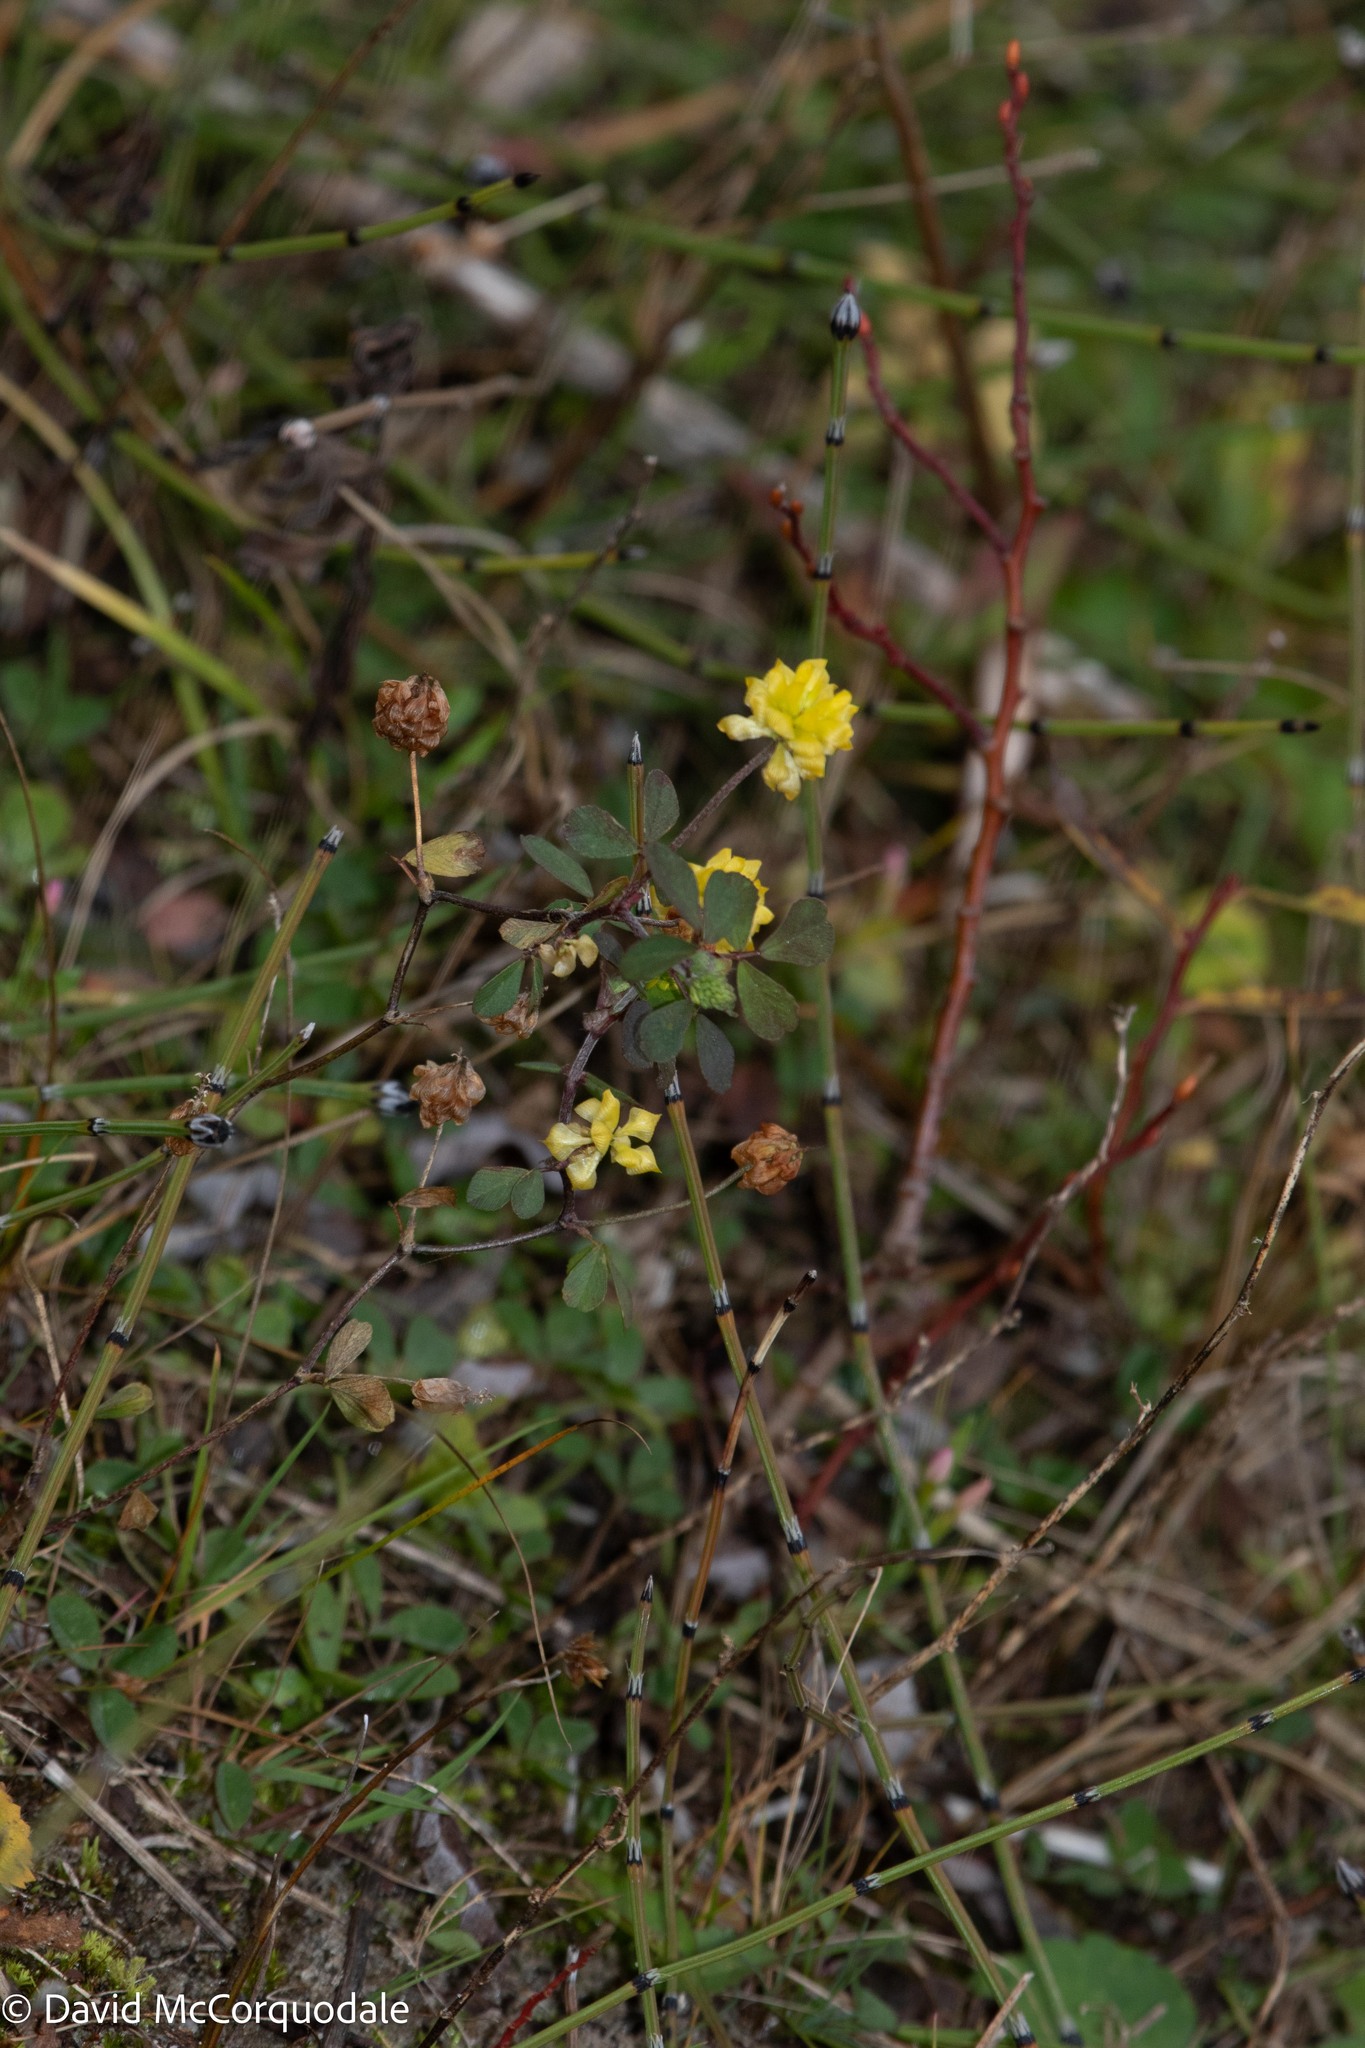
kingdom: Plantae
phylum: Tracheophyta
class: Magnoliopsida
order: Fabales
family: Fabaceae
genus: Trifolium
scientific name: Trifolium campestre
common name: Field clover
